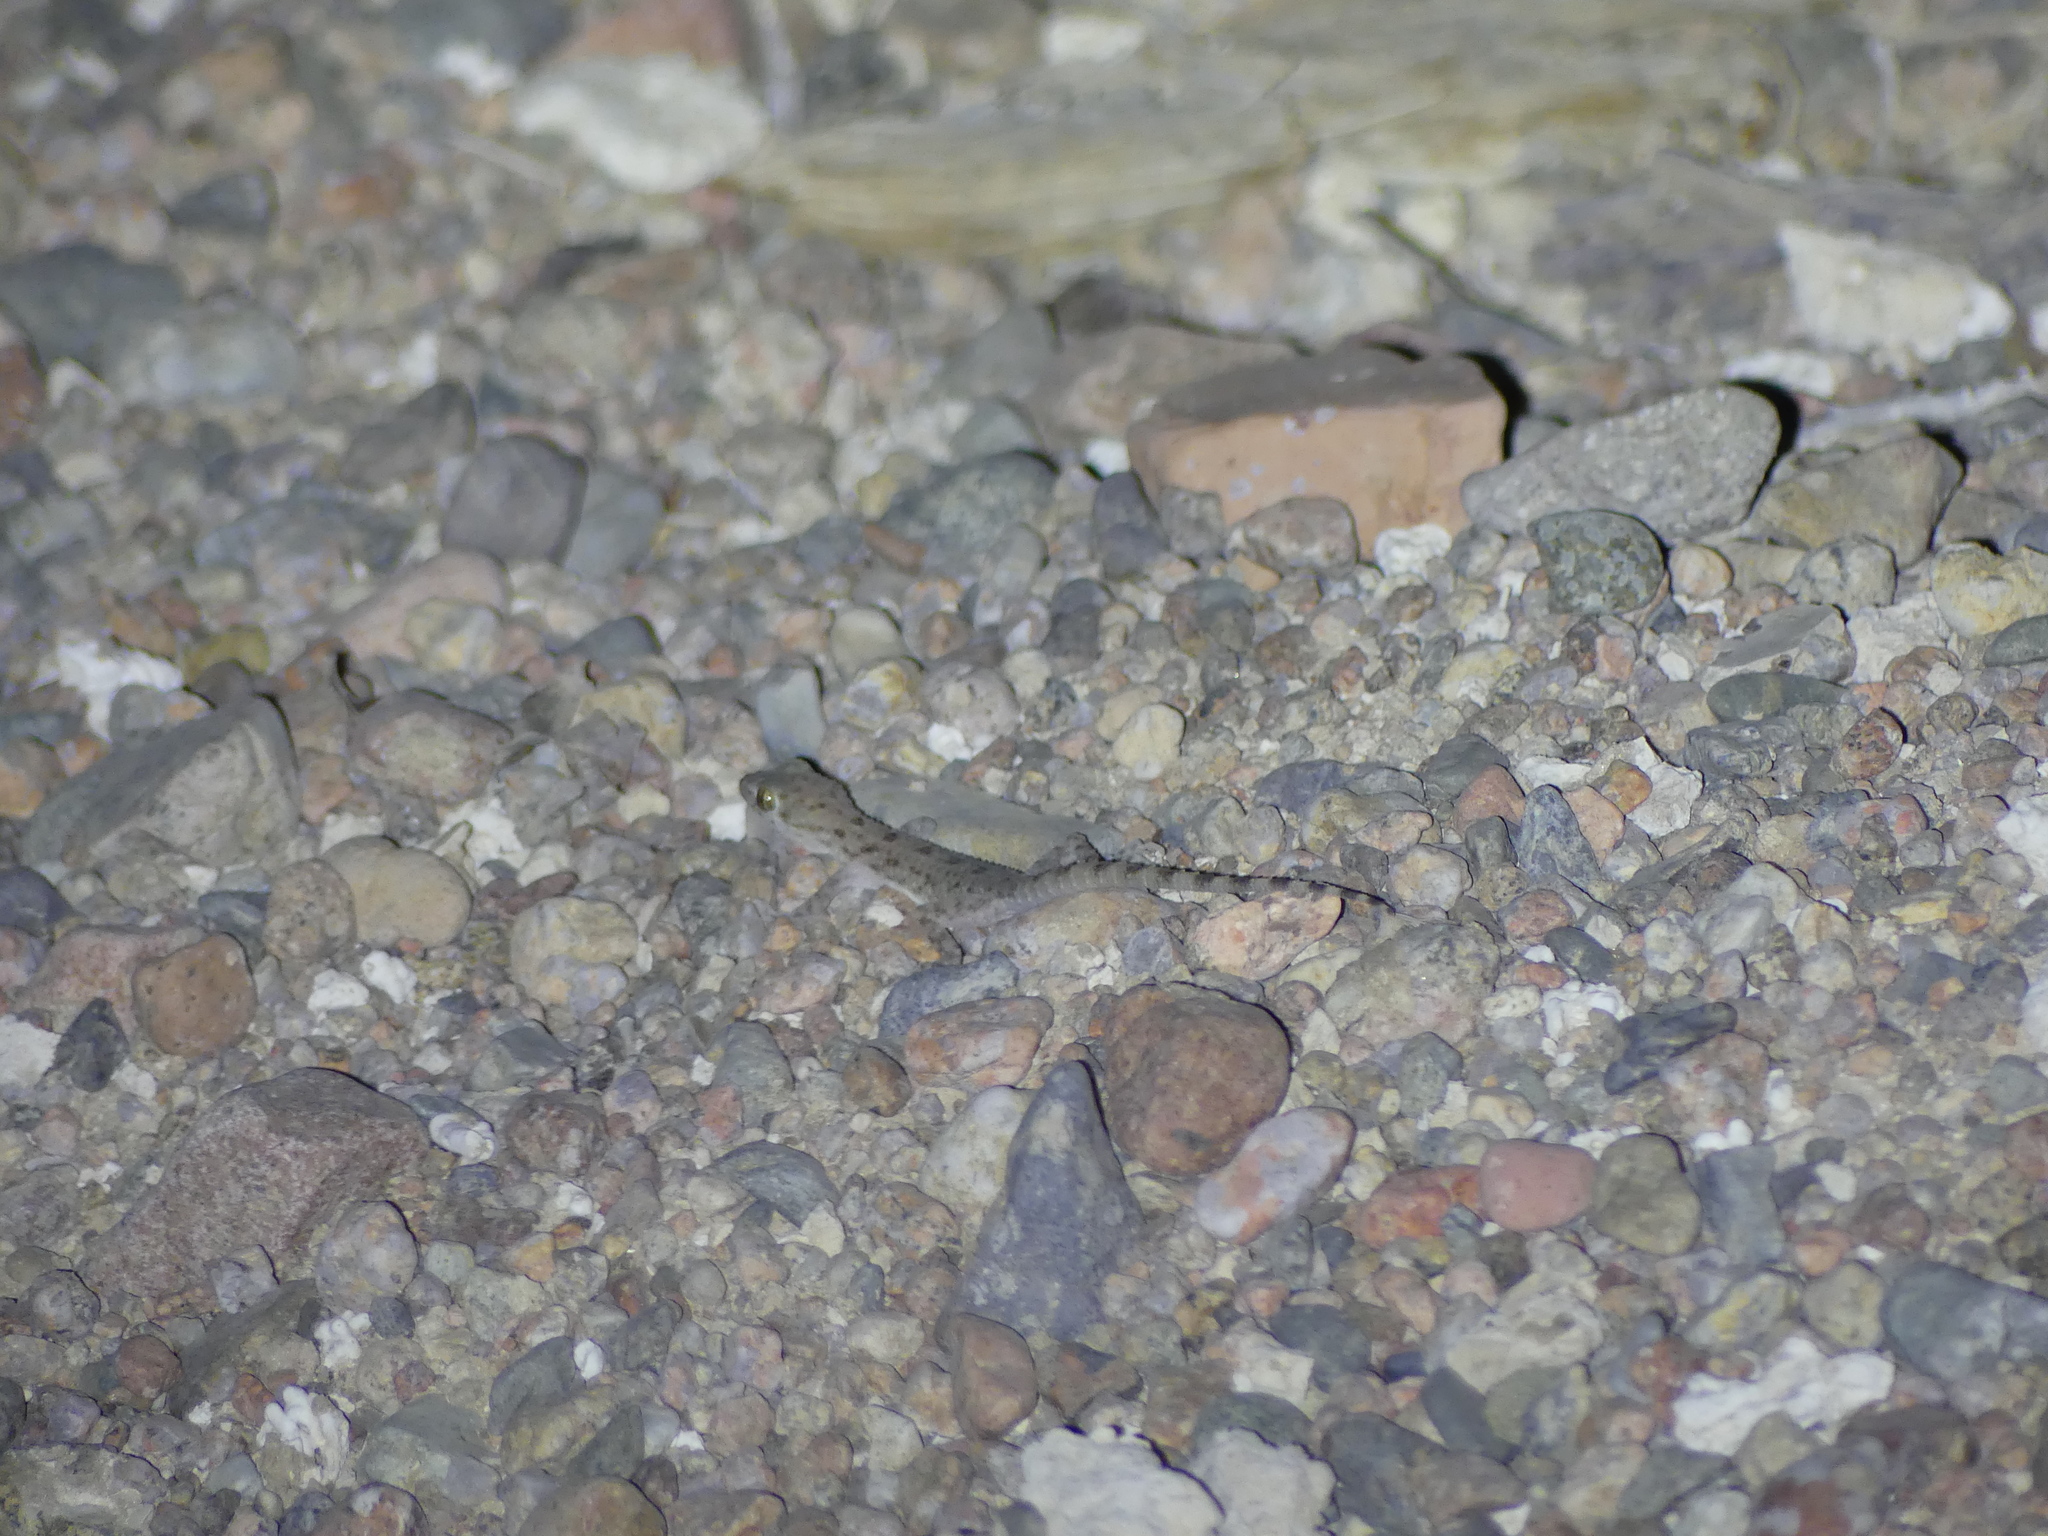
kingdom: Animalia
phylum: Chordata
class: Squamata
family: Gekkonidae
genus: Cyrtopodion
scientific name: Cyrtopodion scabrum
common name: Rough-tailed gecko
